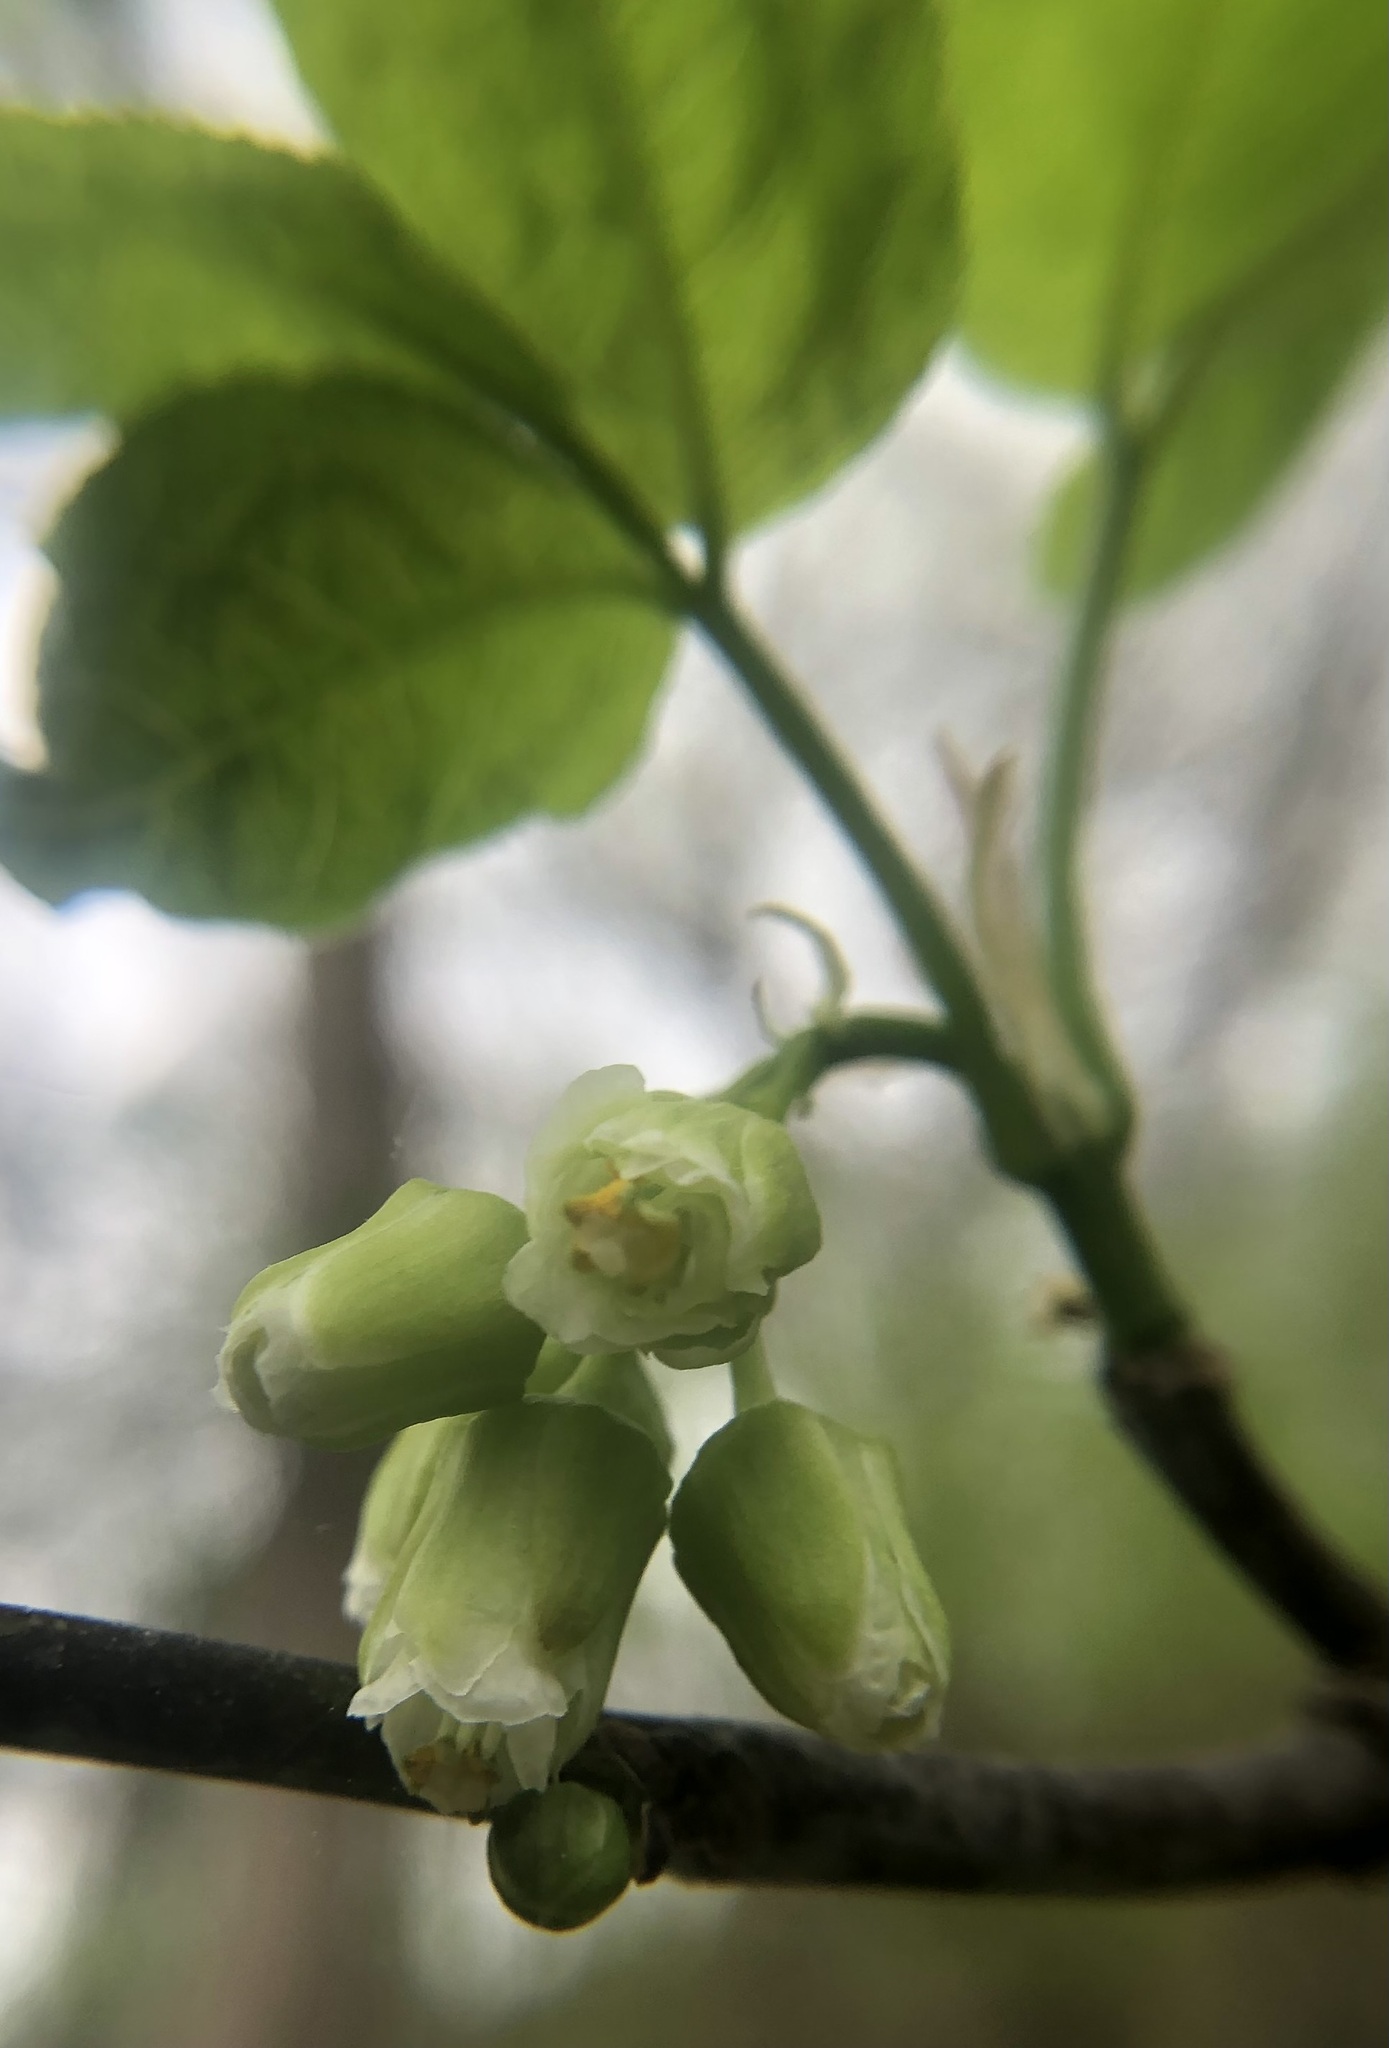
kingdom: Plantae
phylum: Tracheophyta
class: Magnoliopsida
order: Crossosomatales
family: Staphyleaceae
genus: Staphylea
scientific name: Staphylea trifolia
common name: American bladdernut
